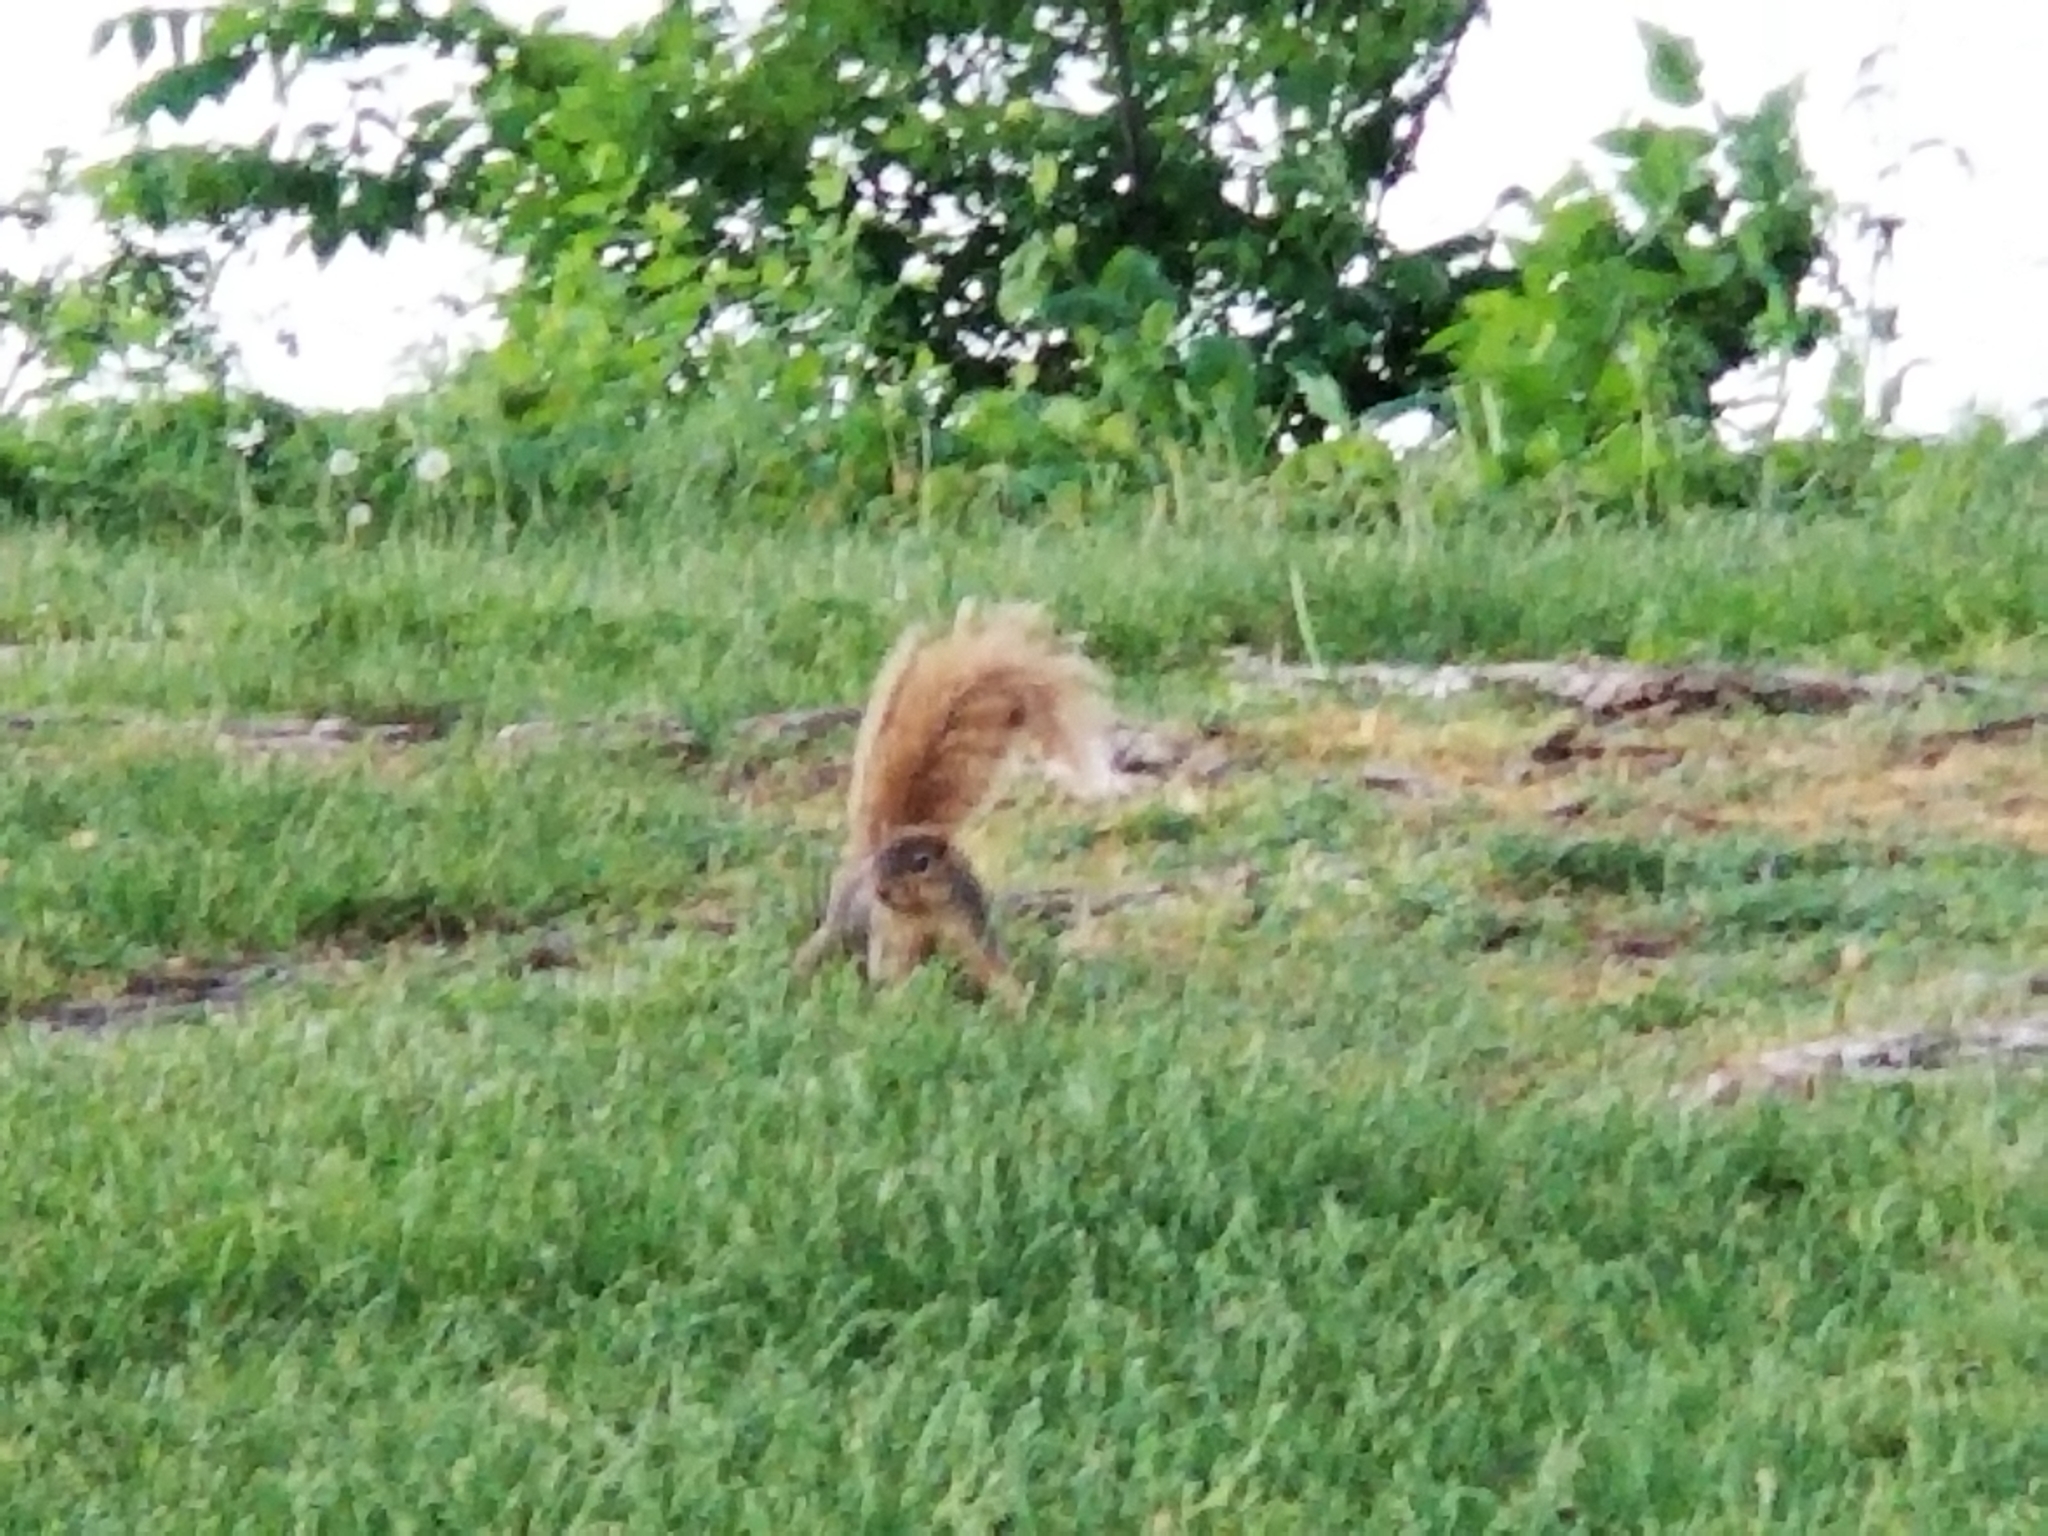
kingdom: Animalia
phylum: Chordata
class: Mammalia
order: Rodentia
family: Sciuridae
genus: Sciurus
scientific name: Sciurus niger
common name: Fox squirrel
